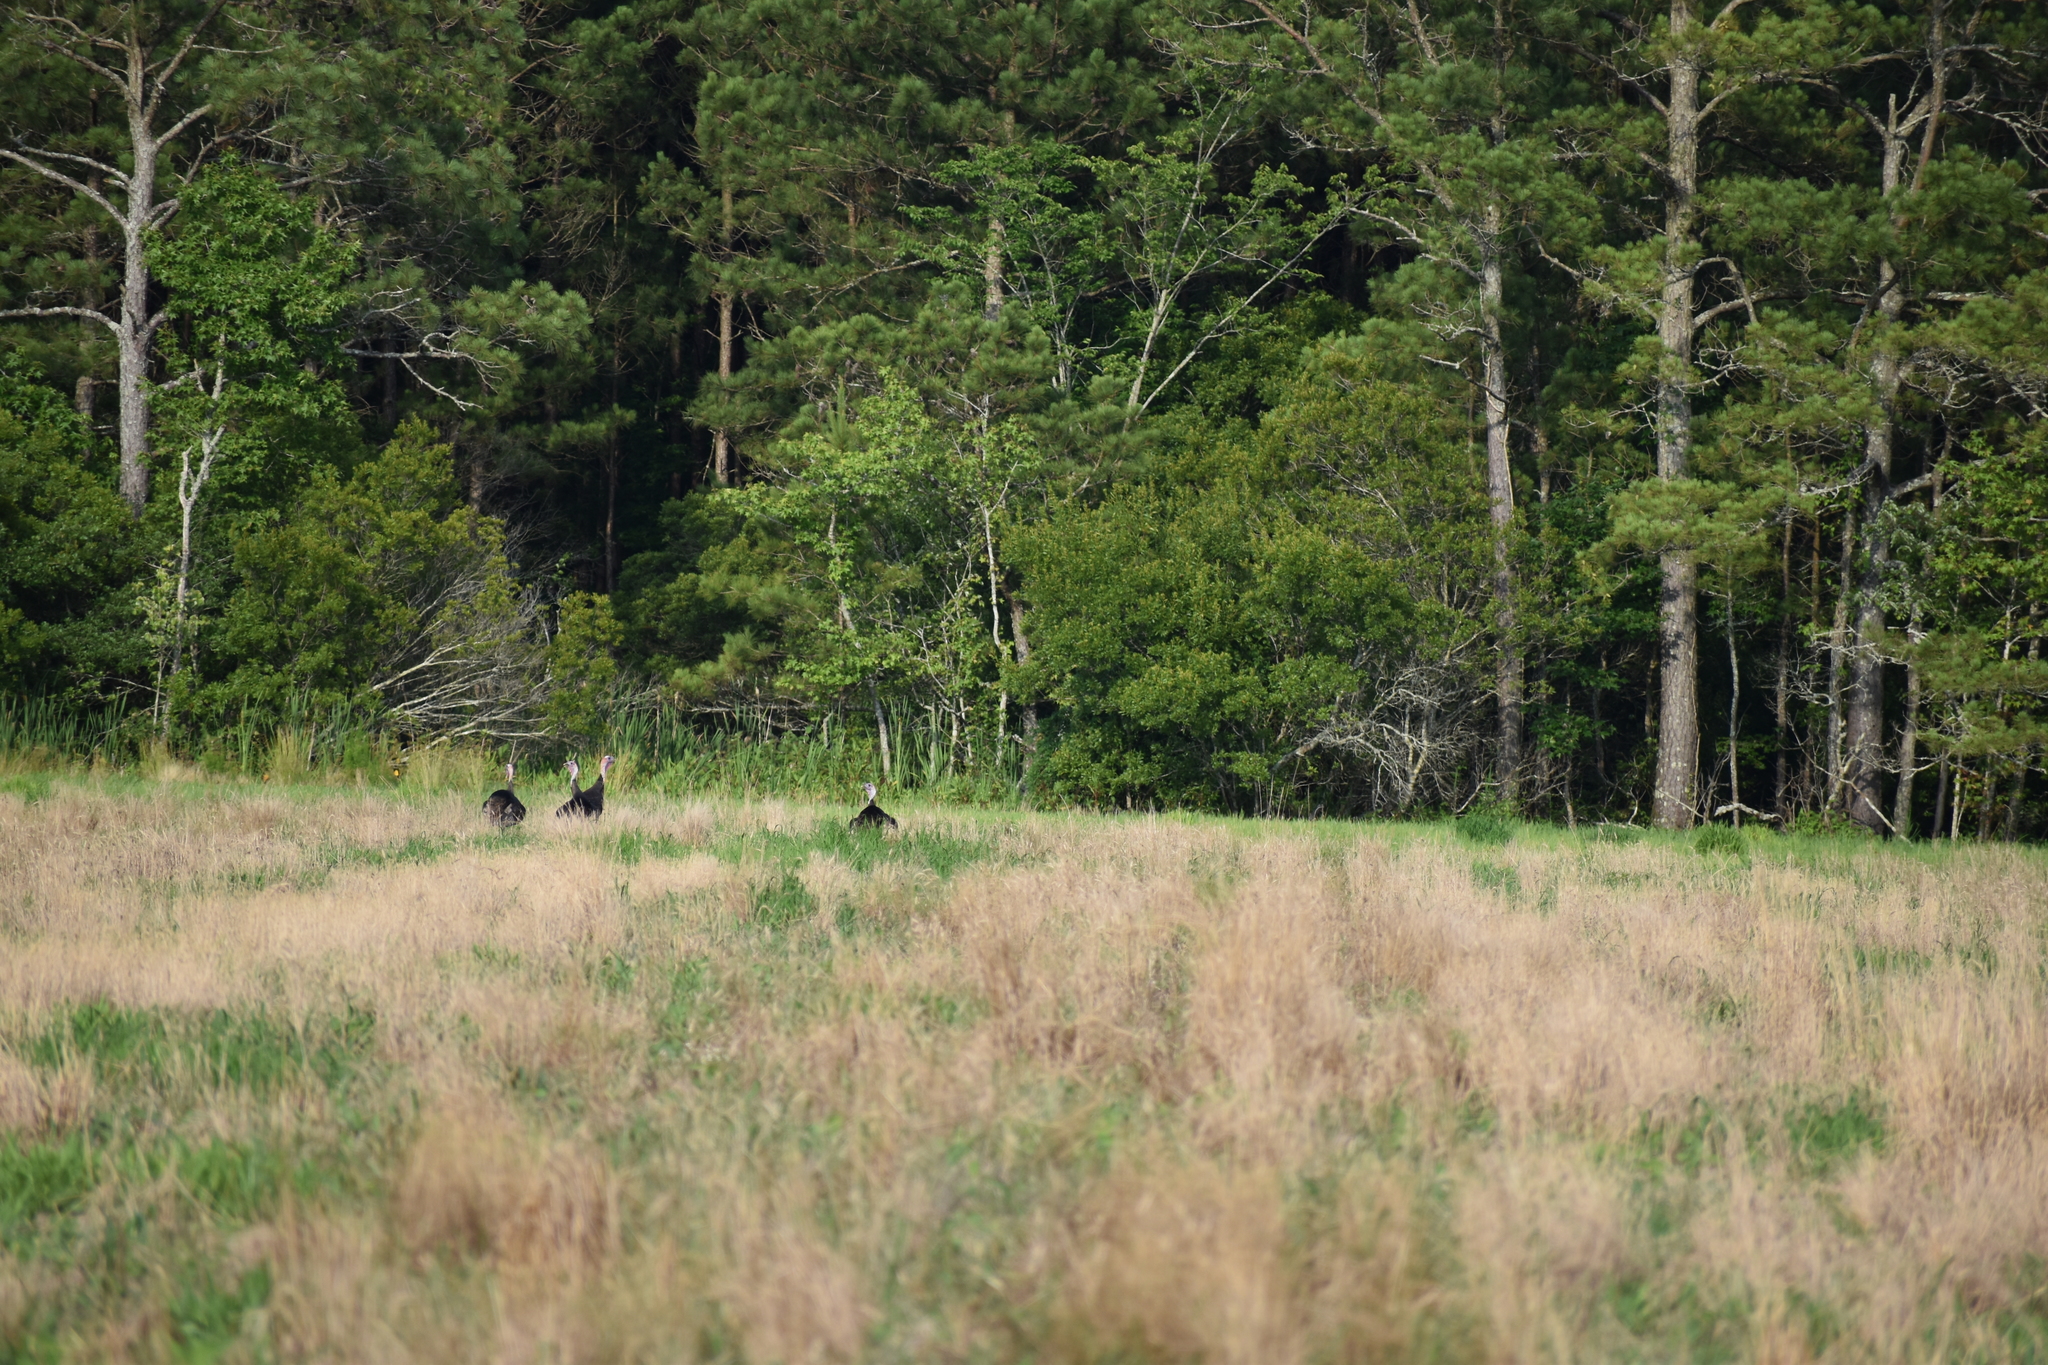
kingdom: Animalia
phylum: Chordata
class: Aves
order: Galliformes
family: Phasianidae
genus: Meleagris
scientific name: Meleagris gallopavo
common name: Wild turkey
